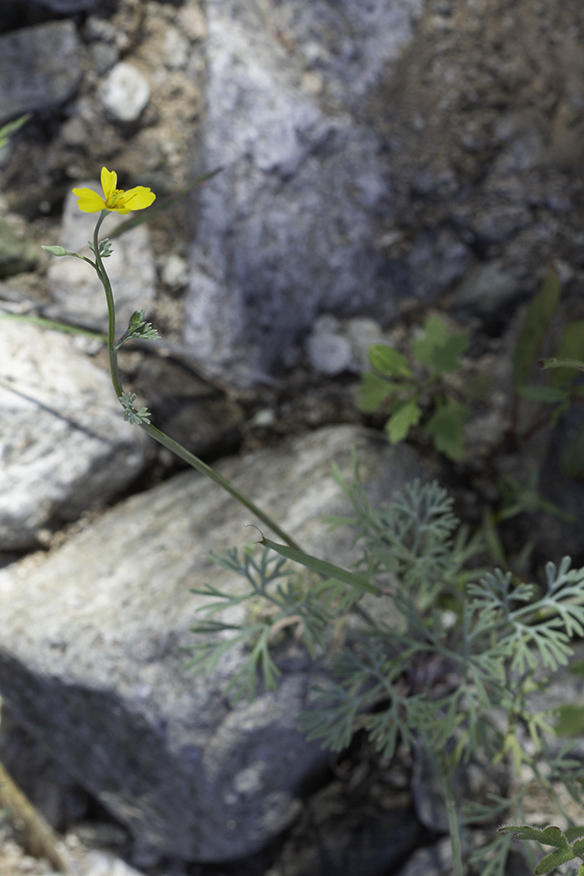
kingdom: Plantae
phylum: Tracheophyta
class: Magnoliopsida
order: Ranunculales
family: Papaveraceae
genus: Eschscholzia
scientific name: Eschscholzia minutiflora
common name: Small-flower california-poppy
